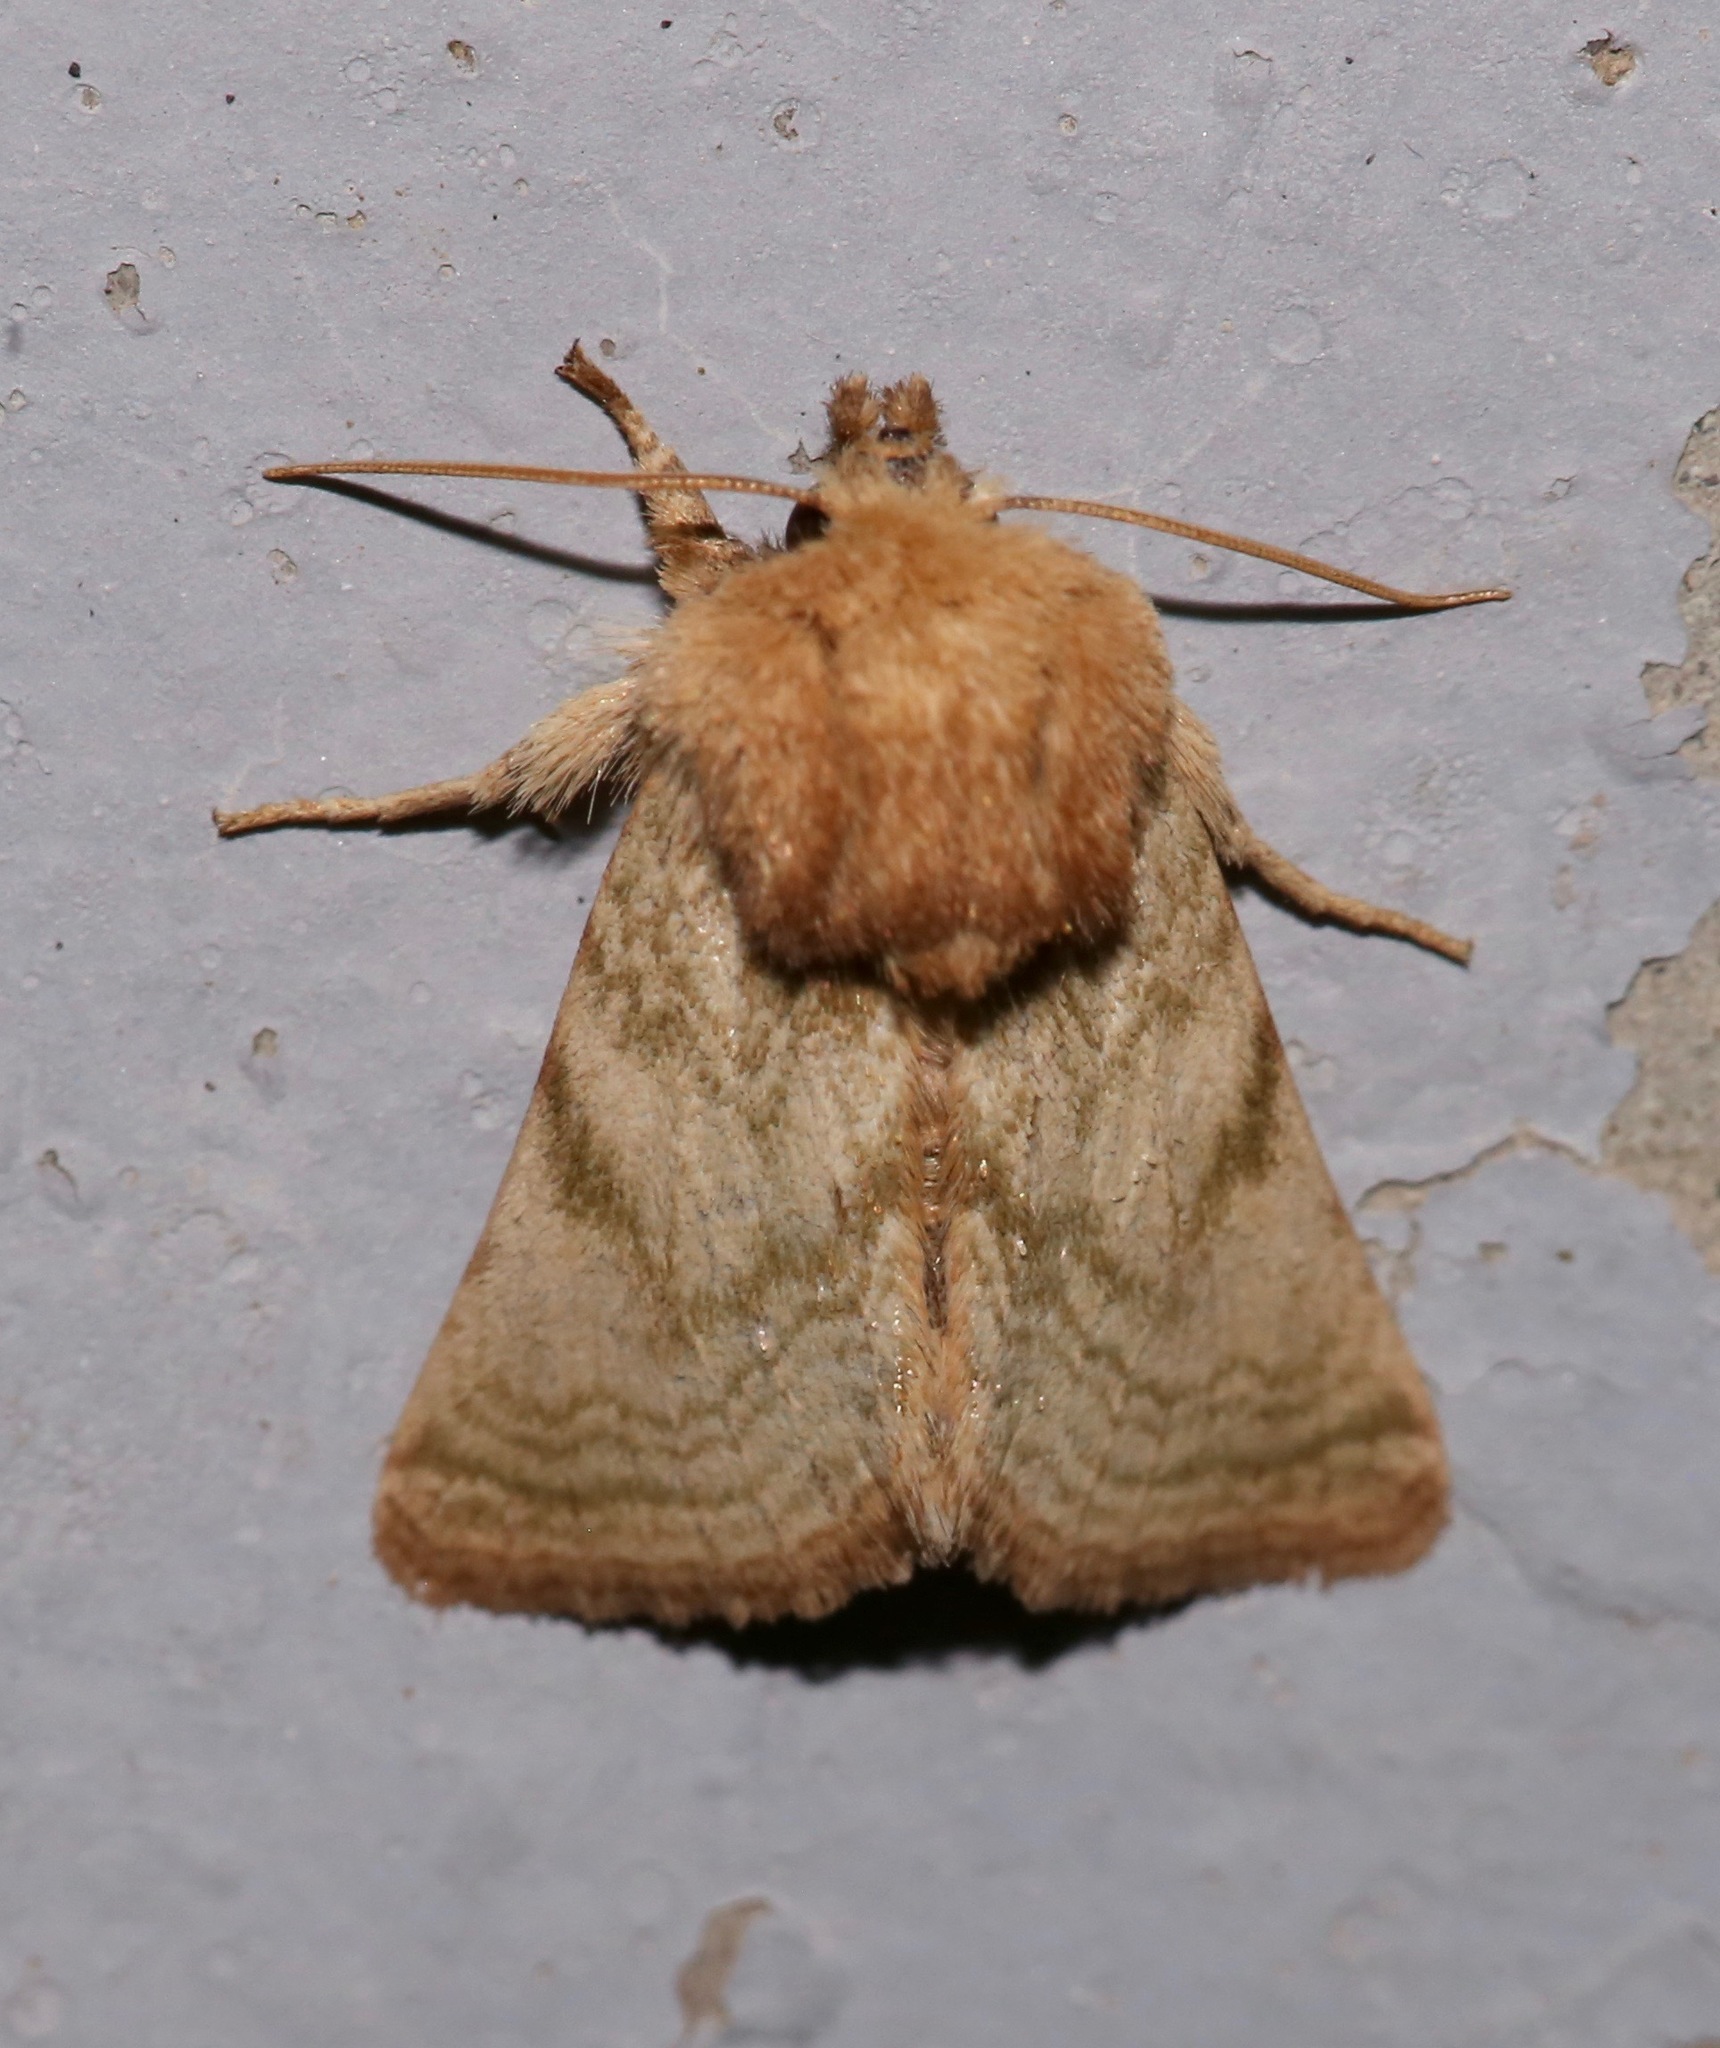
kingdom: Animalia
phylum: Arthropoda
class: Insecta
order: Lepidoptera
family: Noctuidae
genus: Nocloa
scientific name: Nocloa rivulosa
